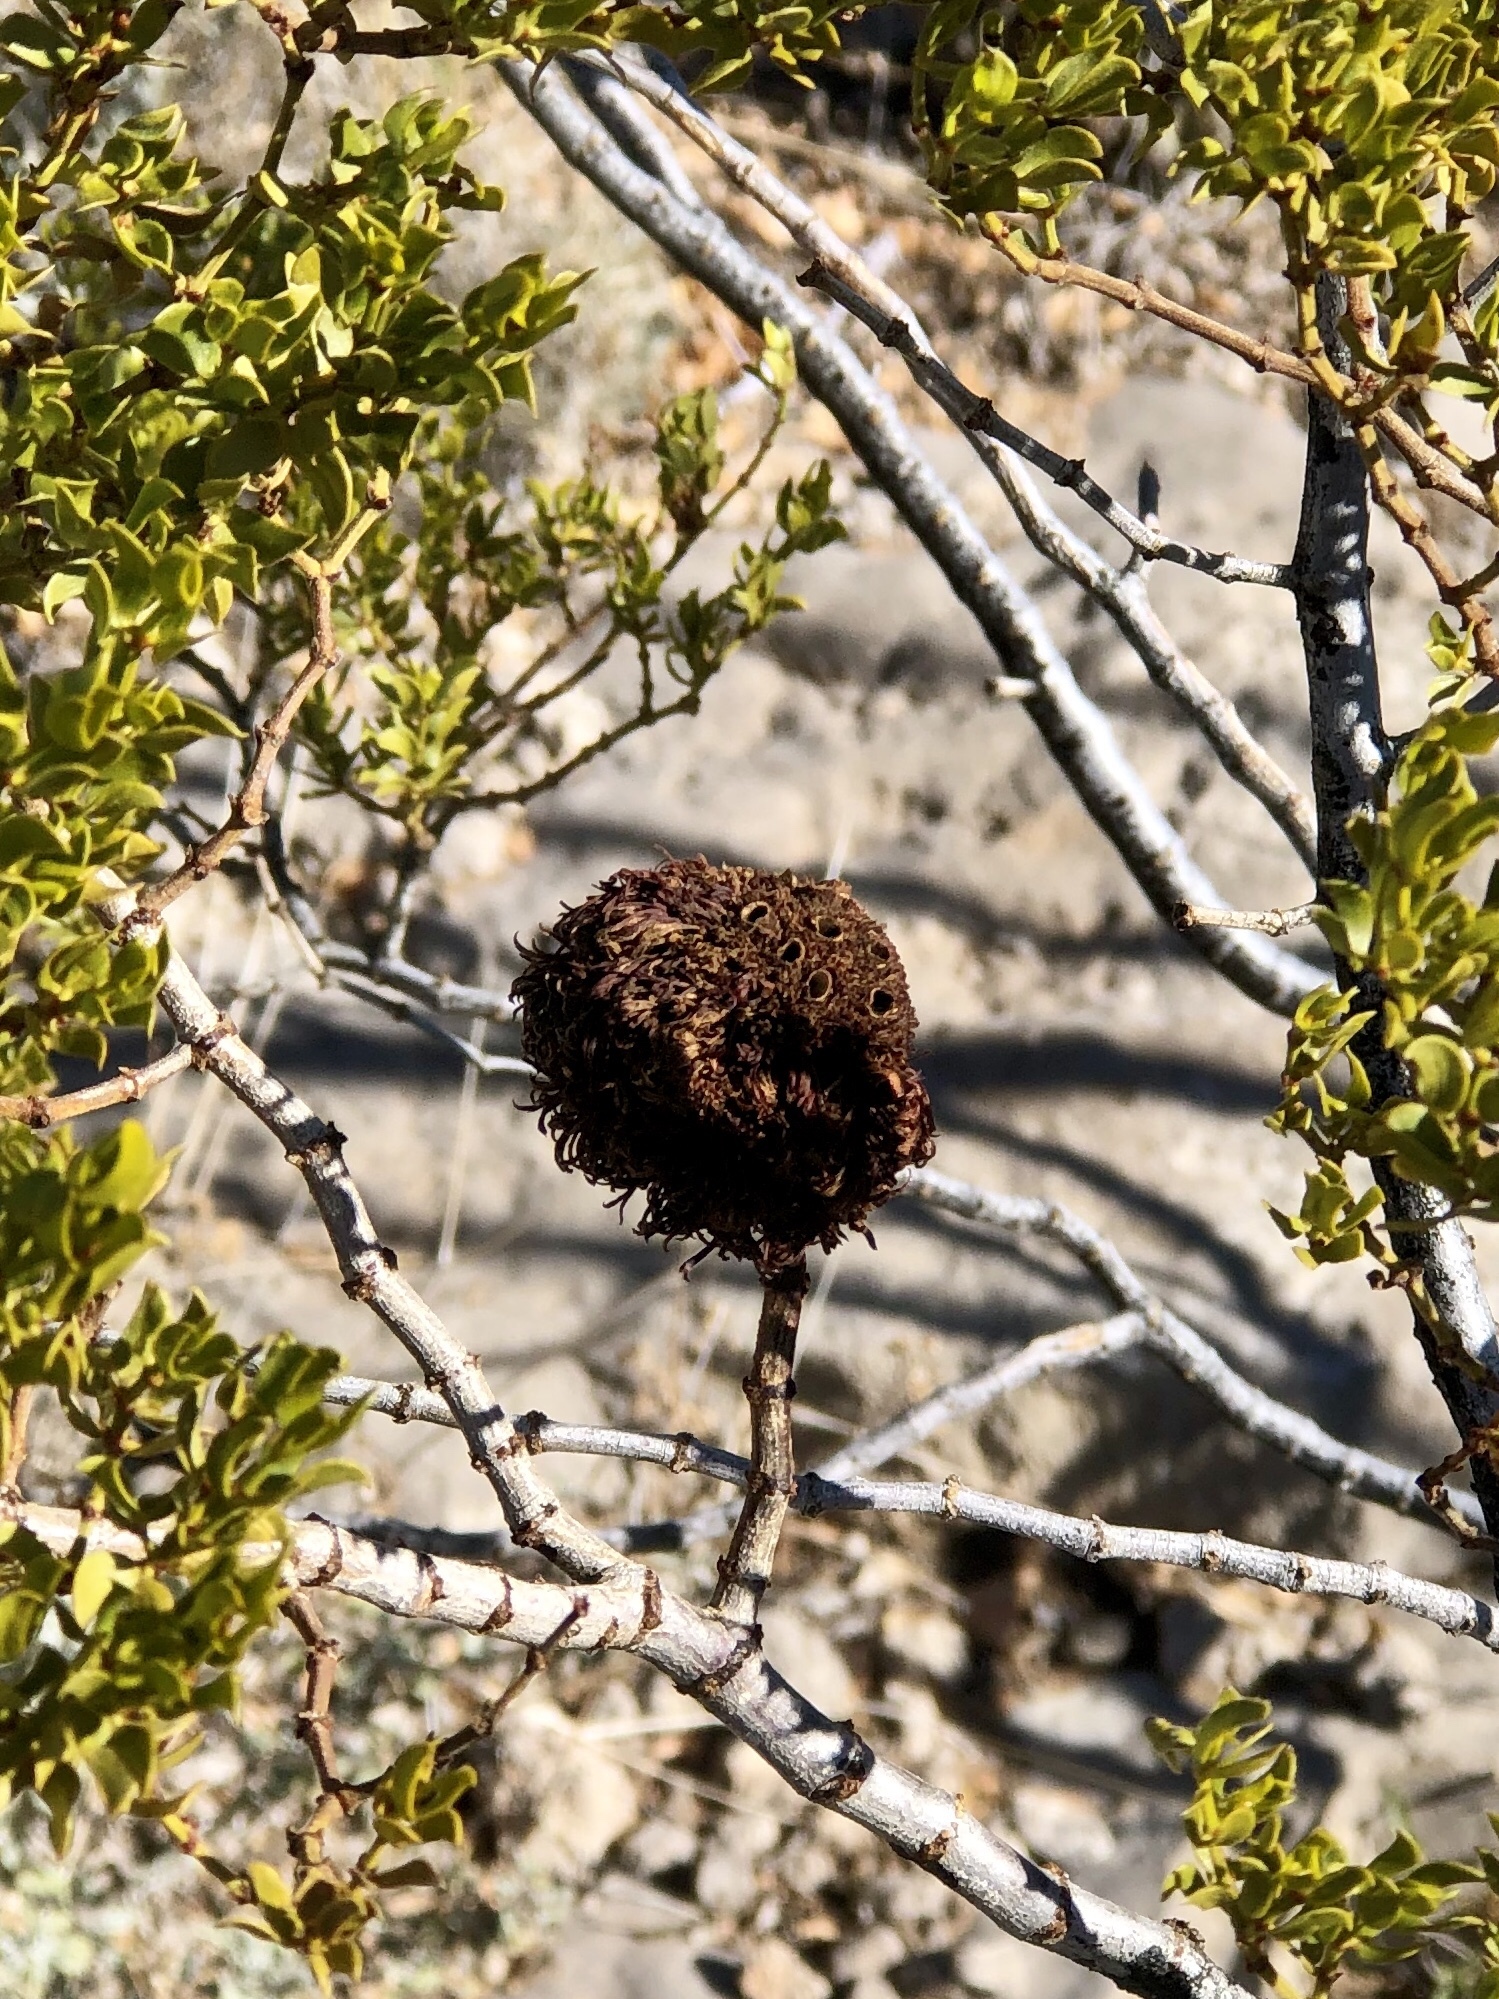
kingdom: Animalia
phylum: Arthropoda
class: Insecta
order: Diptera
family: Cecidomyiidae
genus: Asphondylia
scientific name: Asphondylia auripila
